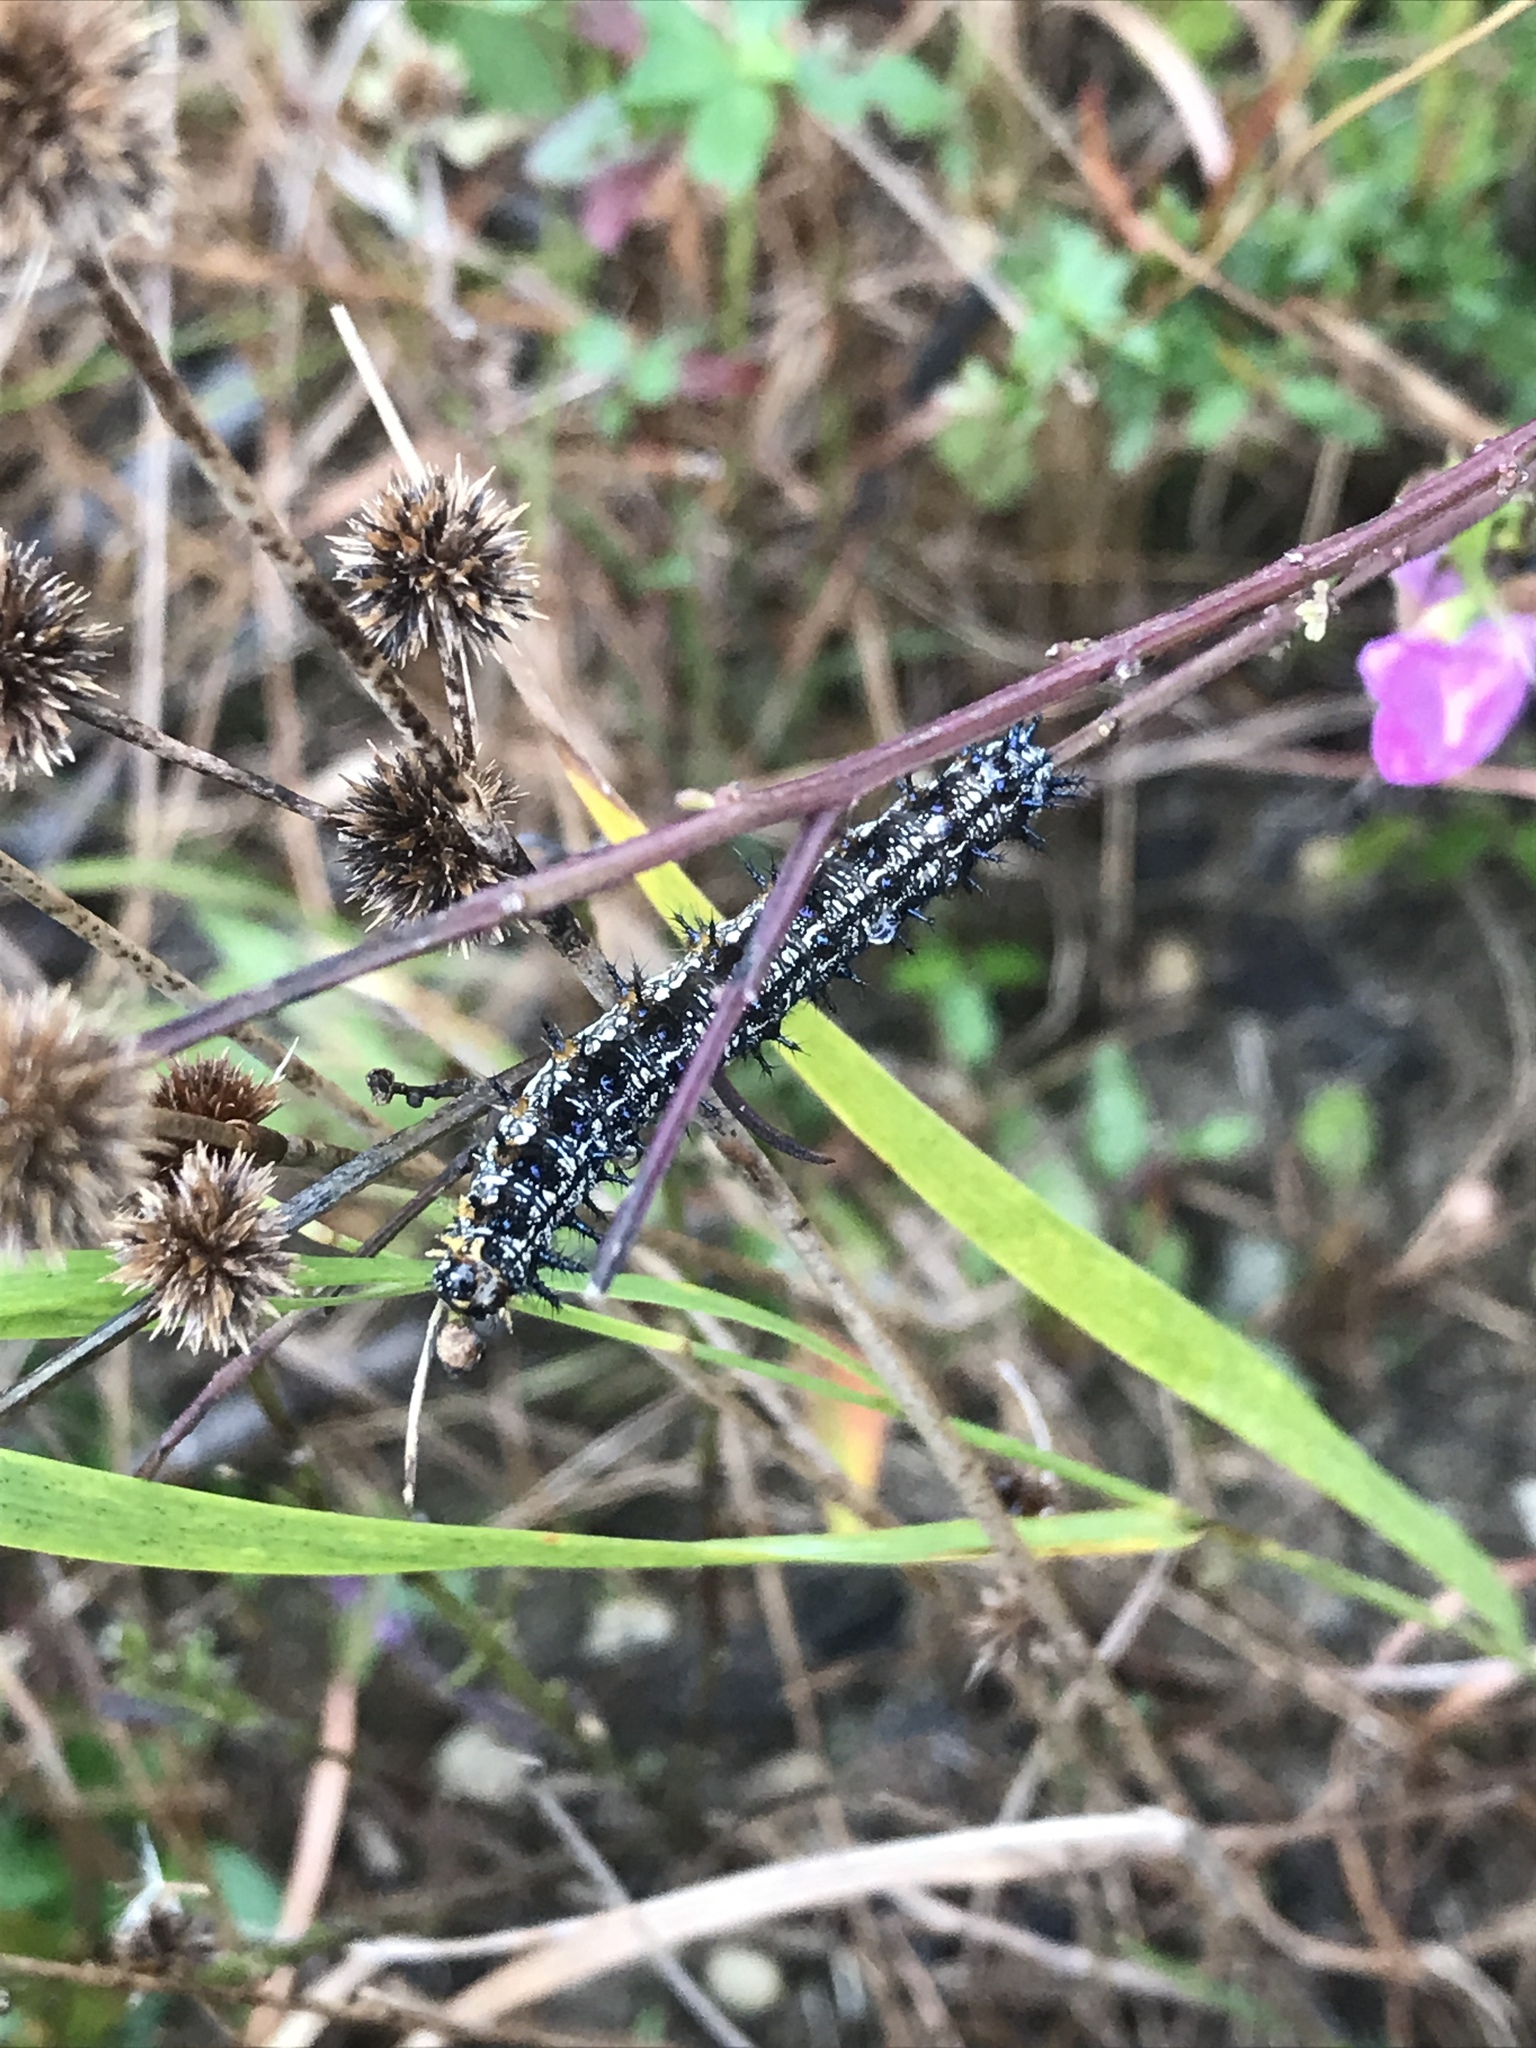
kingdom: Animalia
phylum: Arthropoda
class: Insecta
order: Lepidoptera
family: Nymphalidae
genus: Junonia
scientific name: Junonia coenia
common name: Common buckeye
